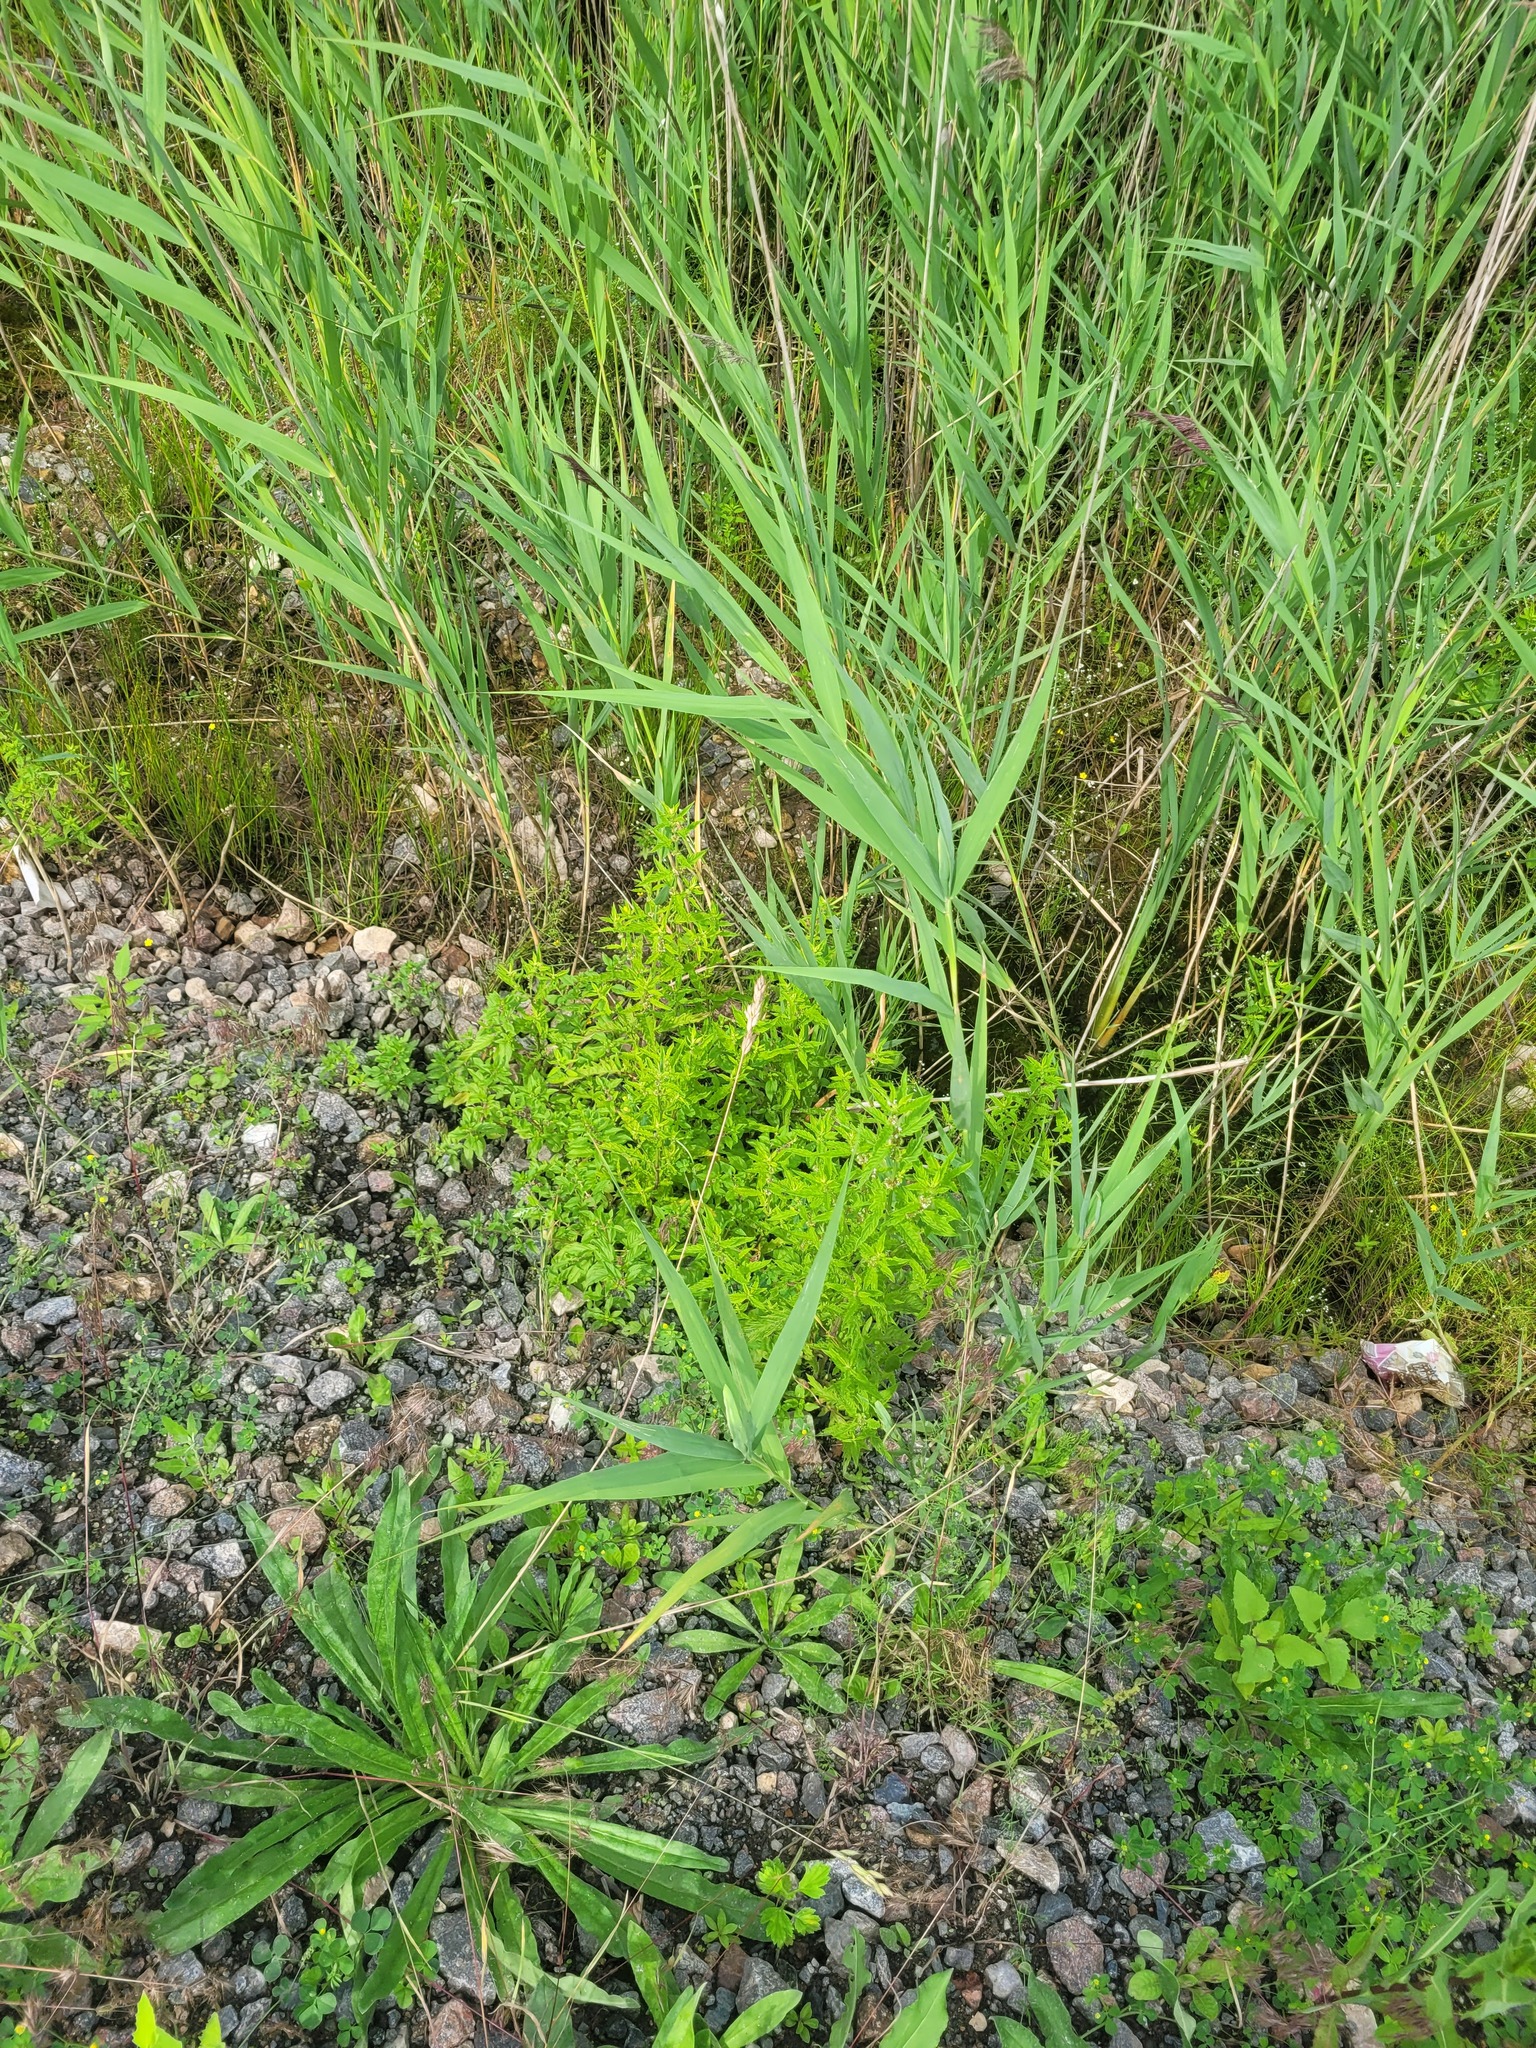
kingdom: Plantae
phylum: Tracheophyta
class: Magnoliopsida
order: Lamiales
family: Lamiaceae
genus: Lycopus
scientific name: Lycopus europaeus
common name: European bugleweed
